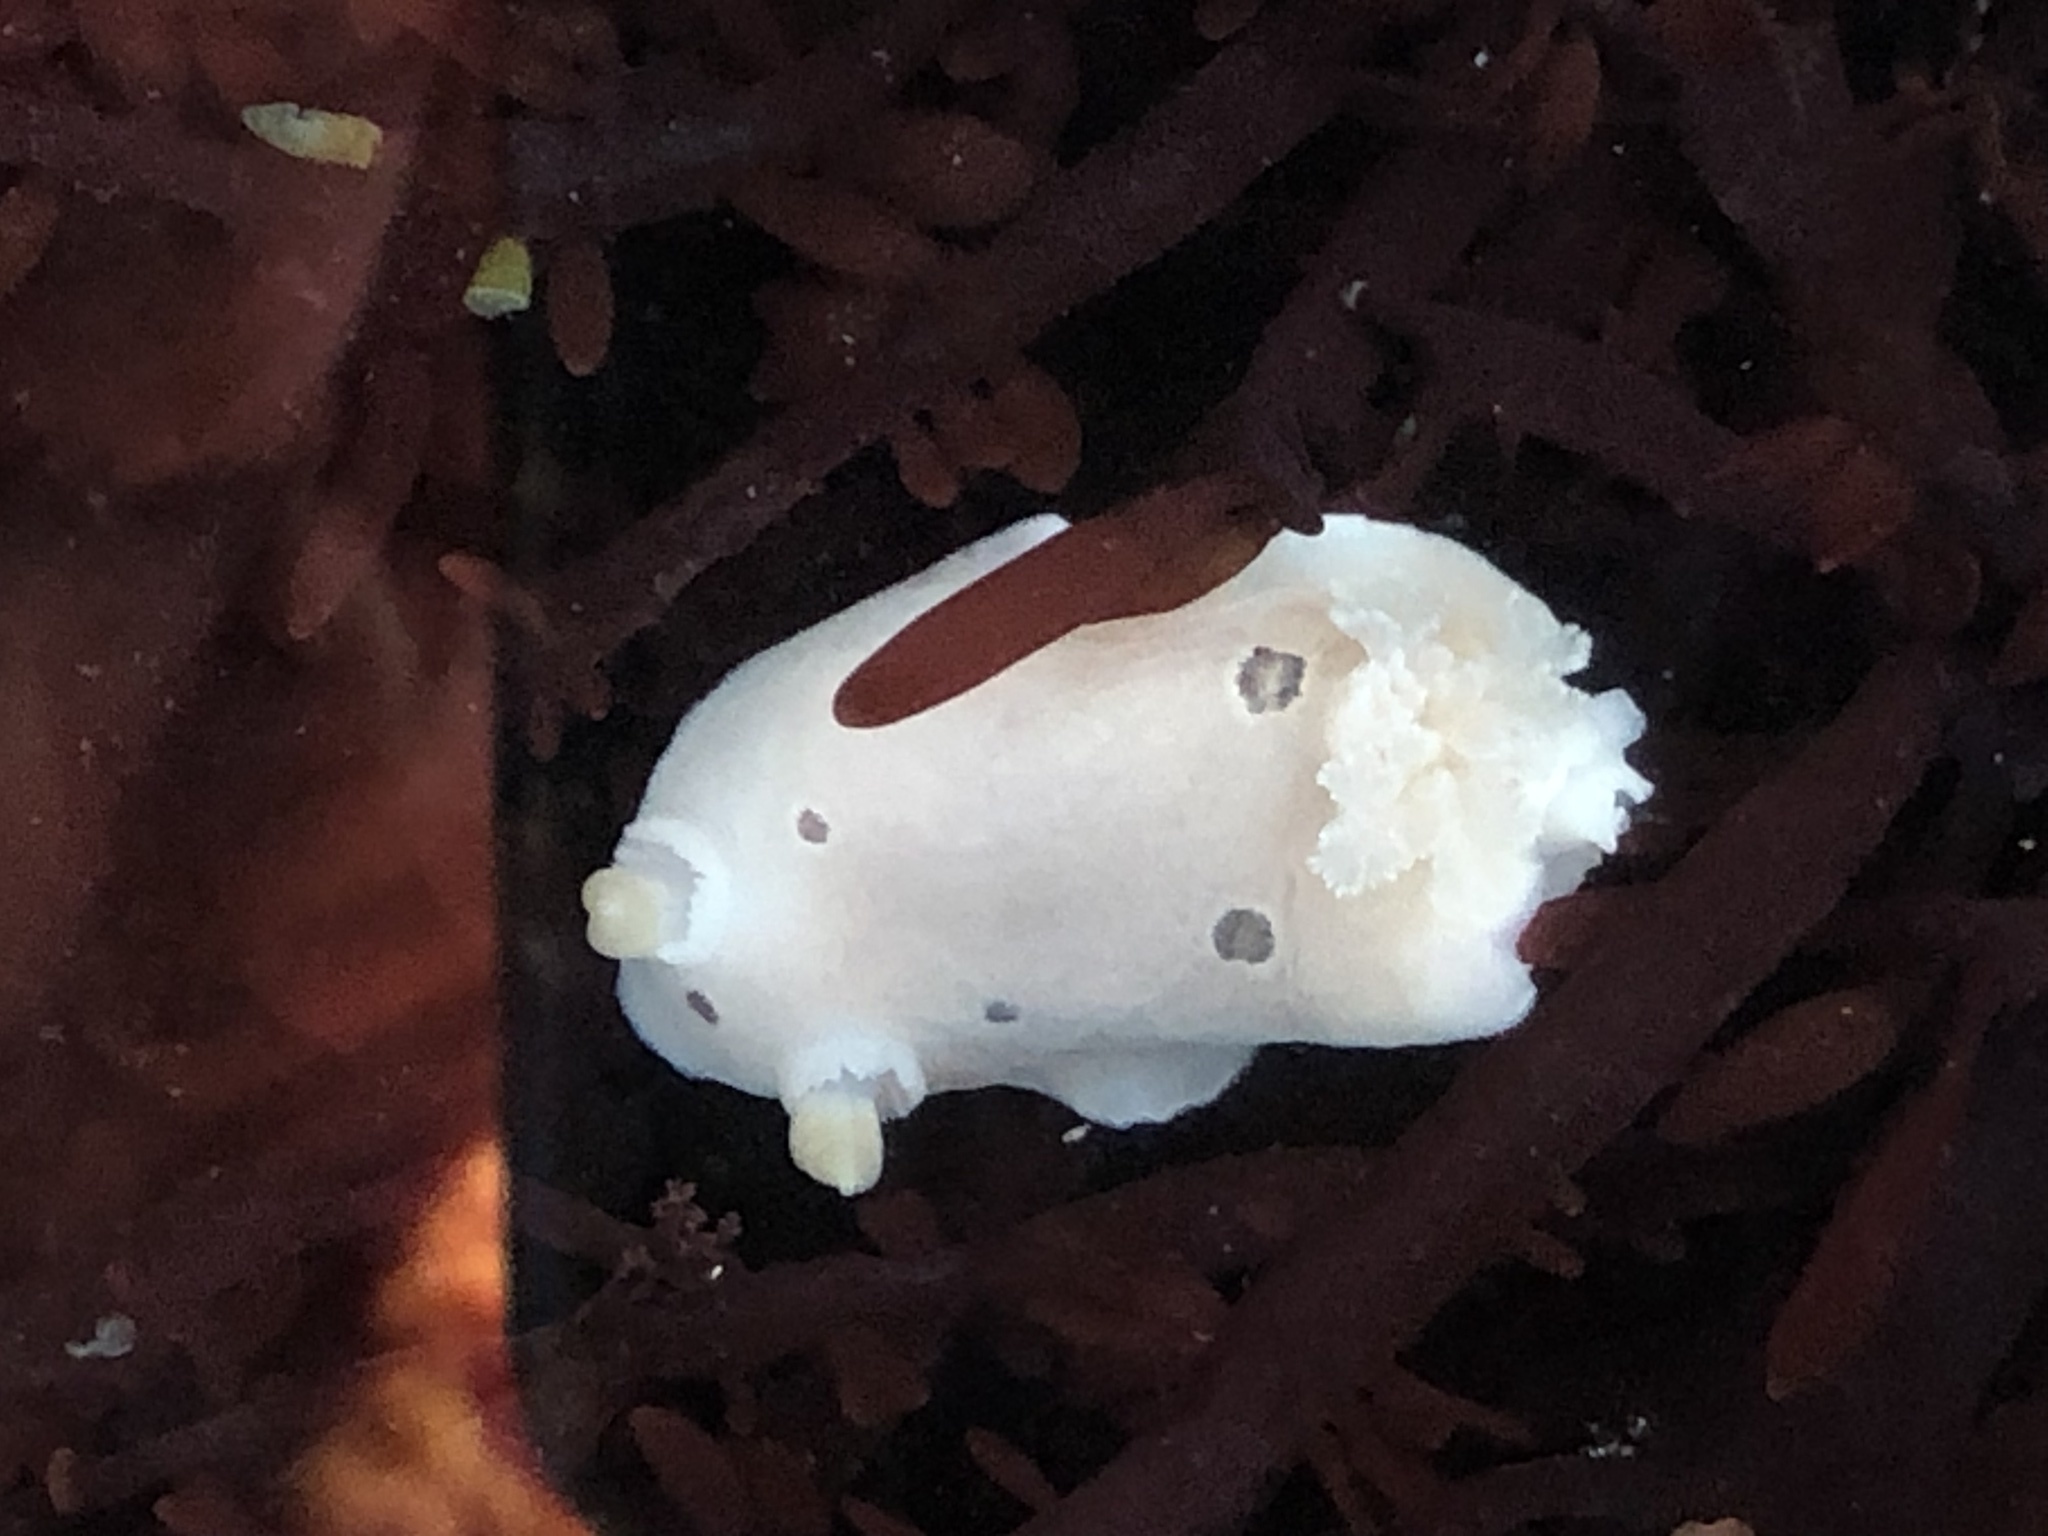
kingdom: Animalia
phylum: Mollusca
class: Gastropoda
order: Nudibranchia
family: Discodorididae
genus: Diaulula
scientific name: Diaulula sandiegensis
